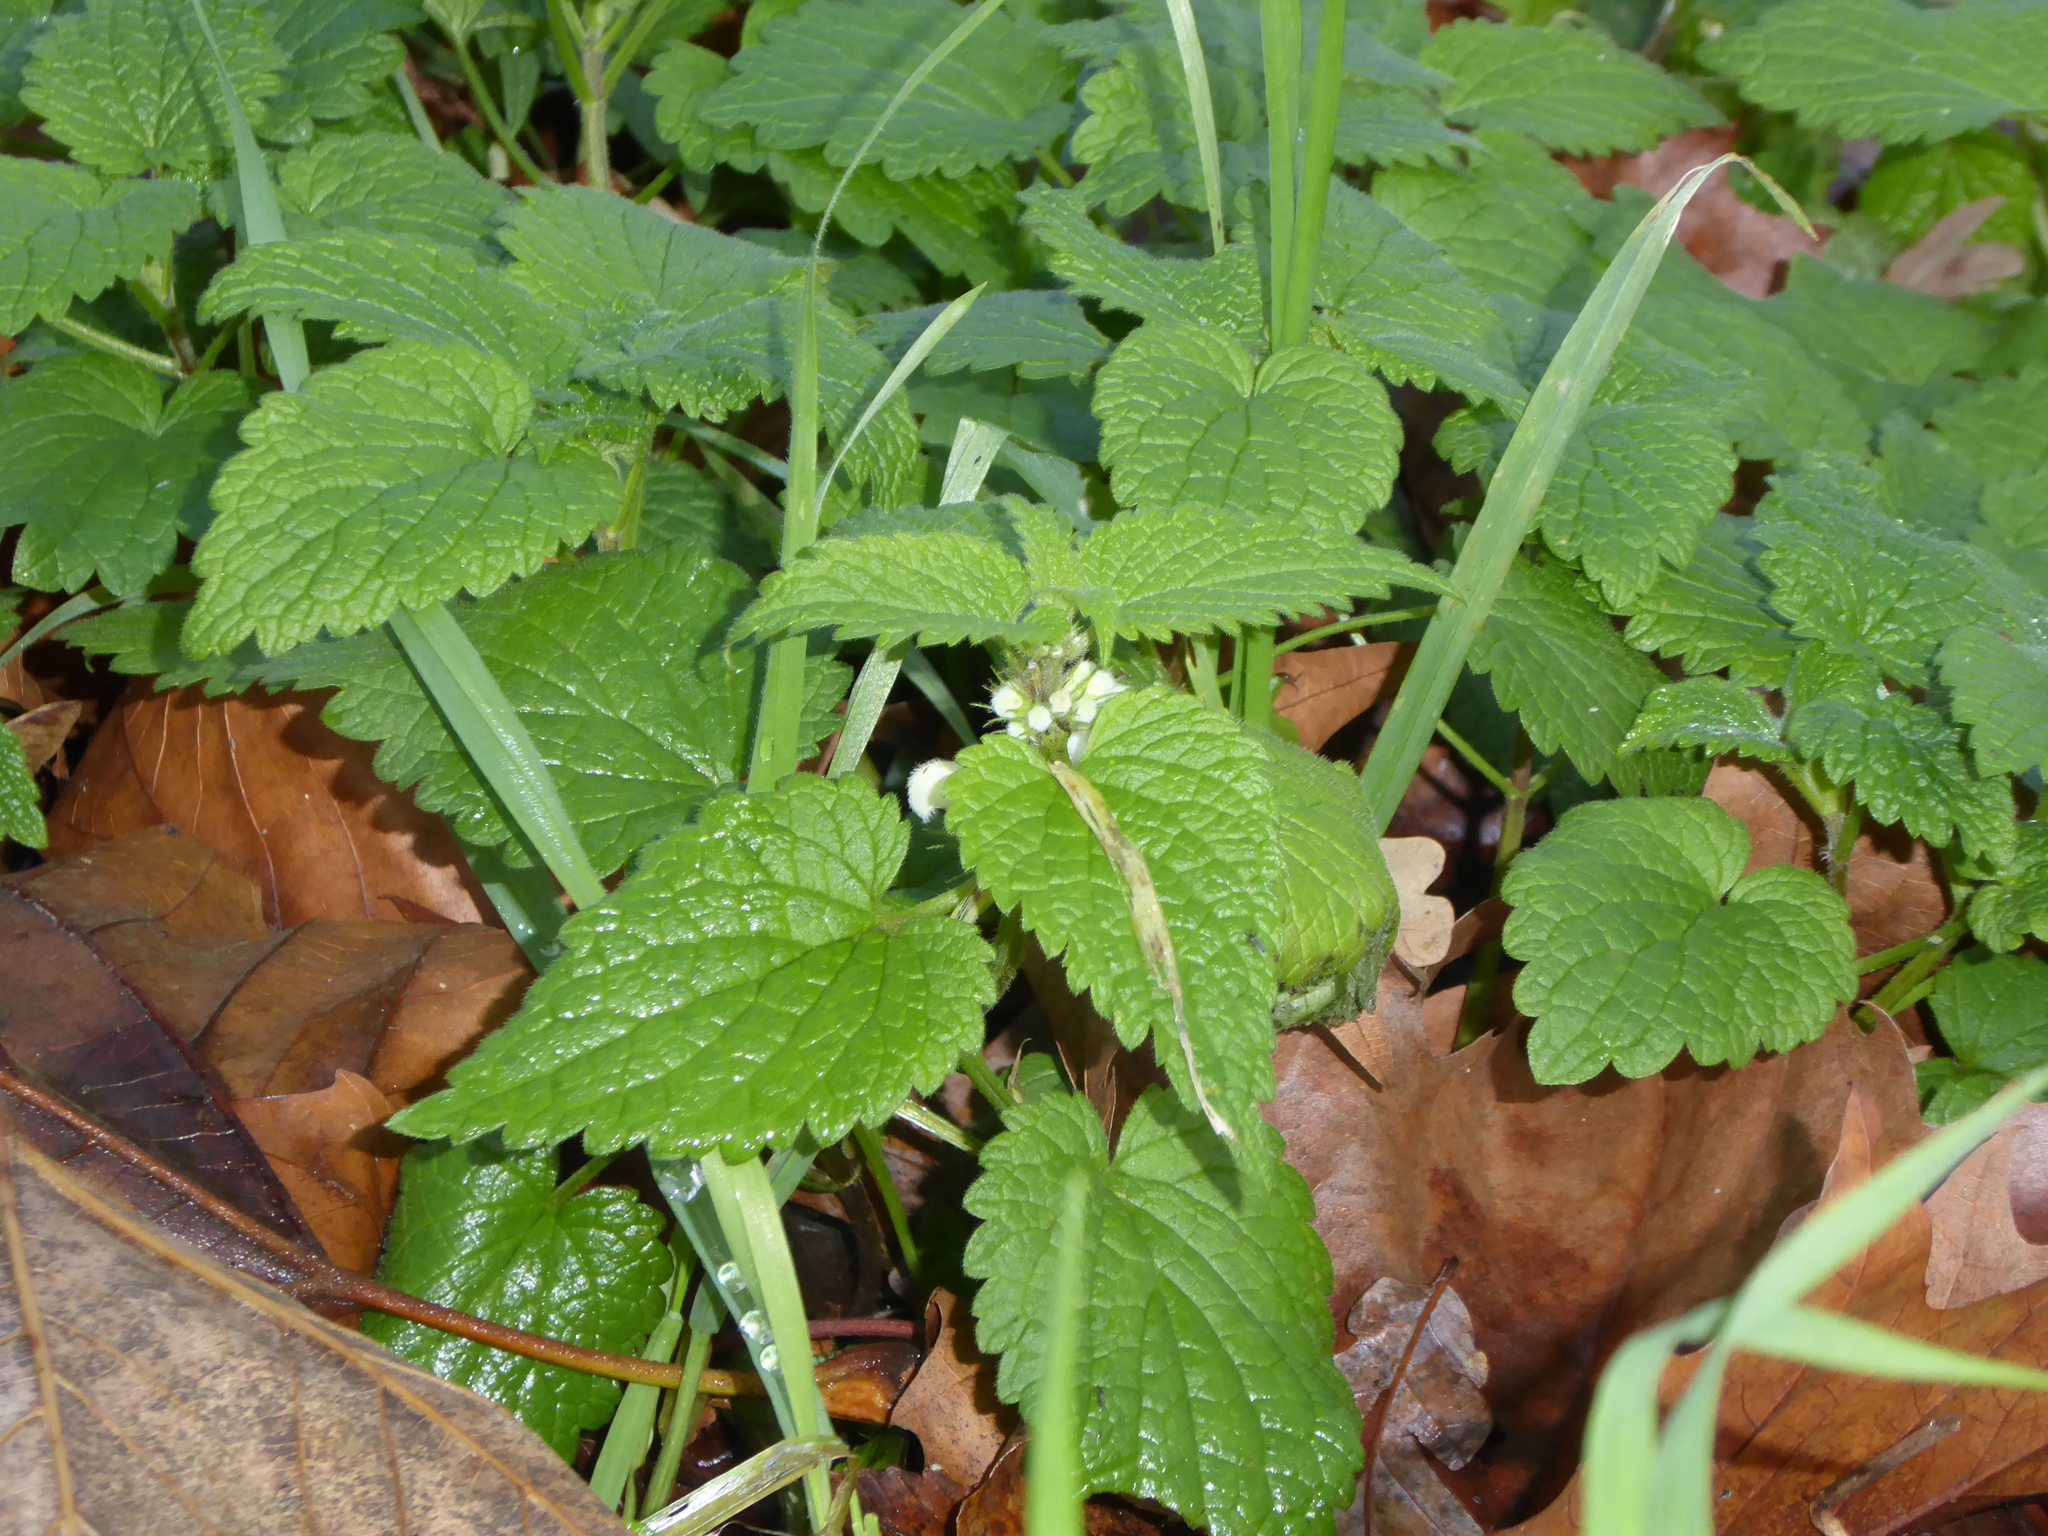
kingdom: Plantae
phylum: Tracheophyta
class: Magnoliopsida
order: Lamiales
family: Lamiaceae
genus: Lamium
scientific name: Lamium album
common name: White dead-nettle
